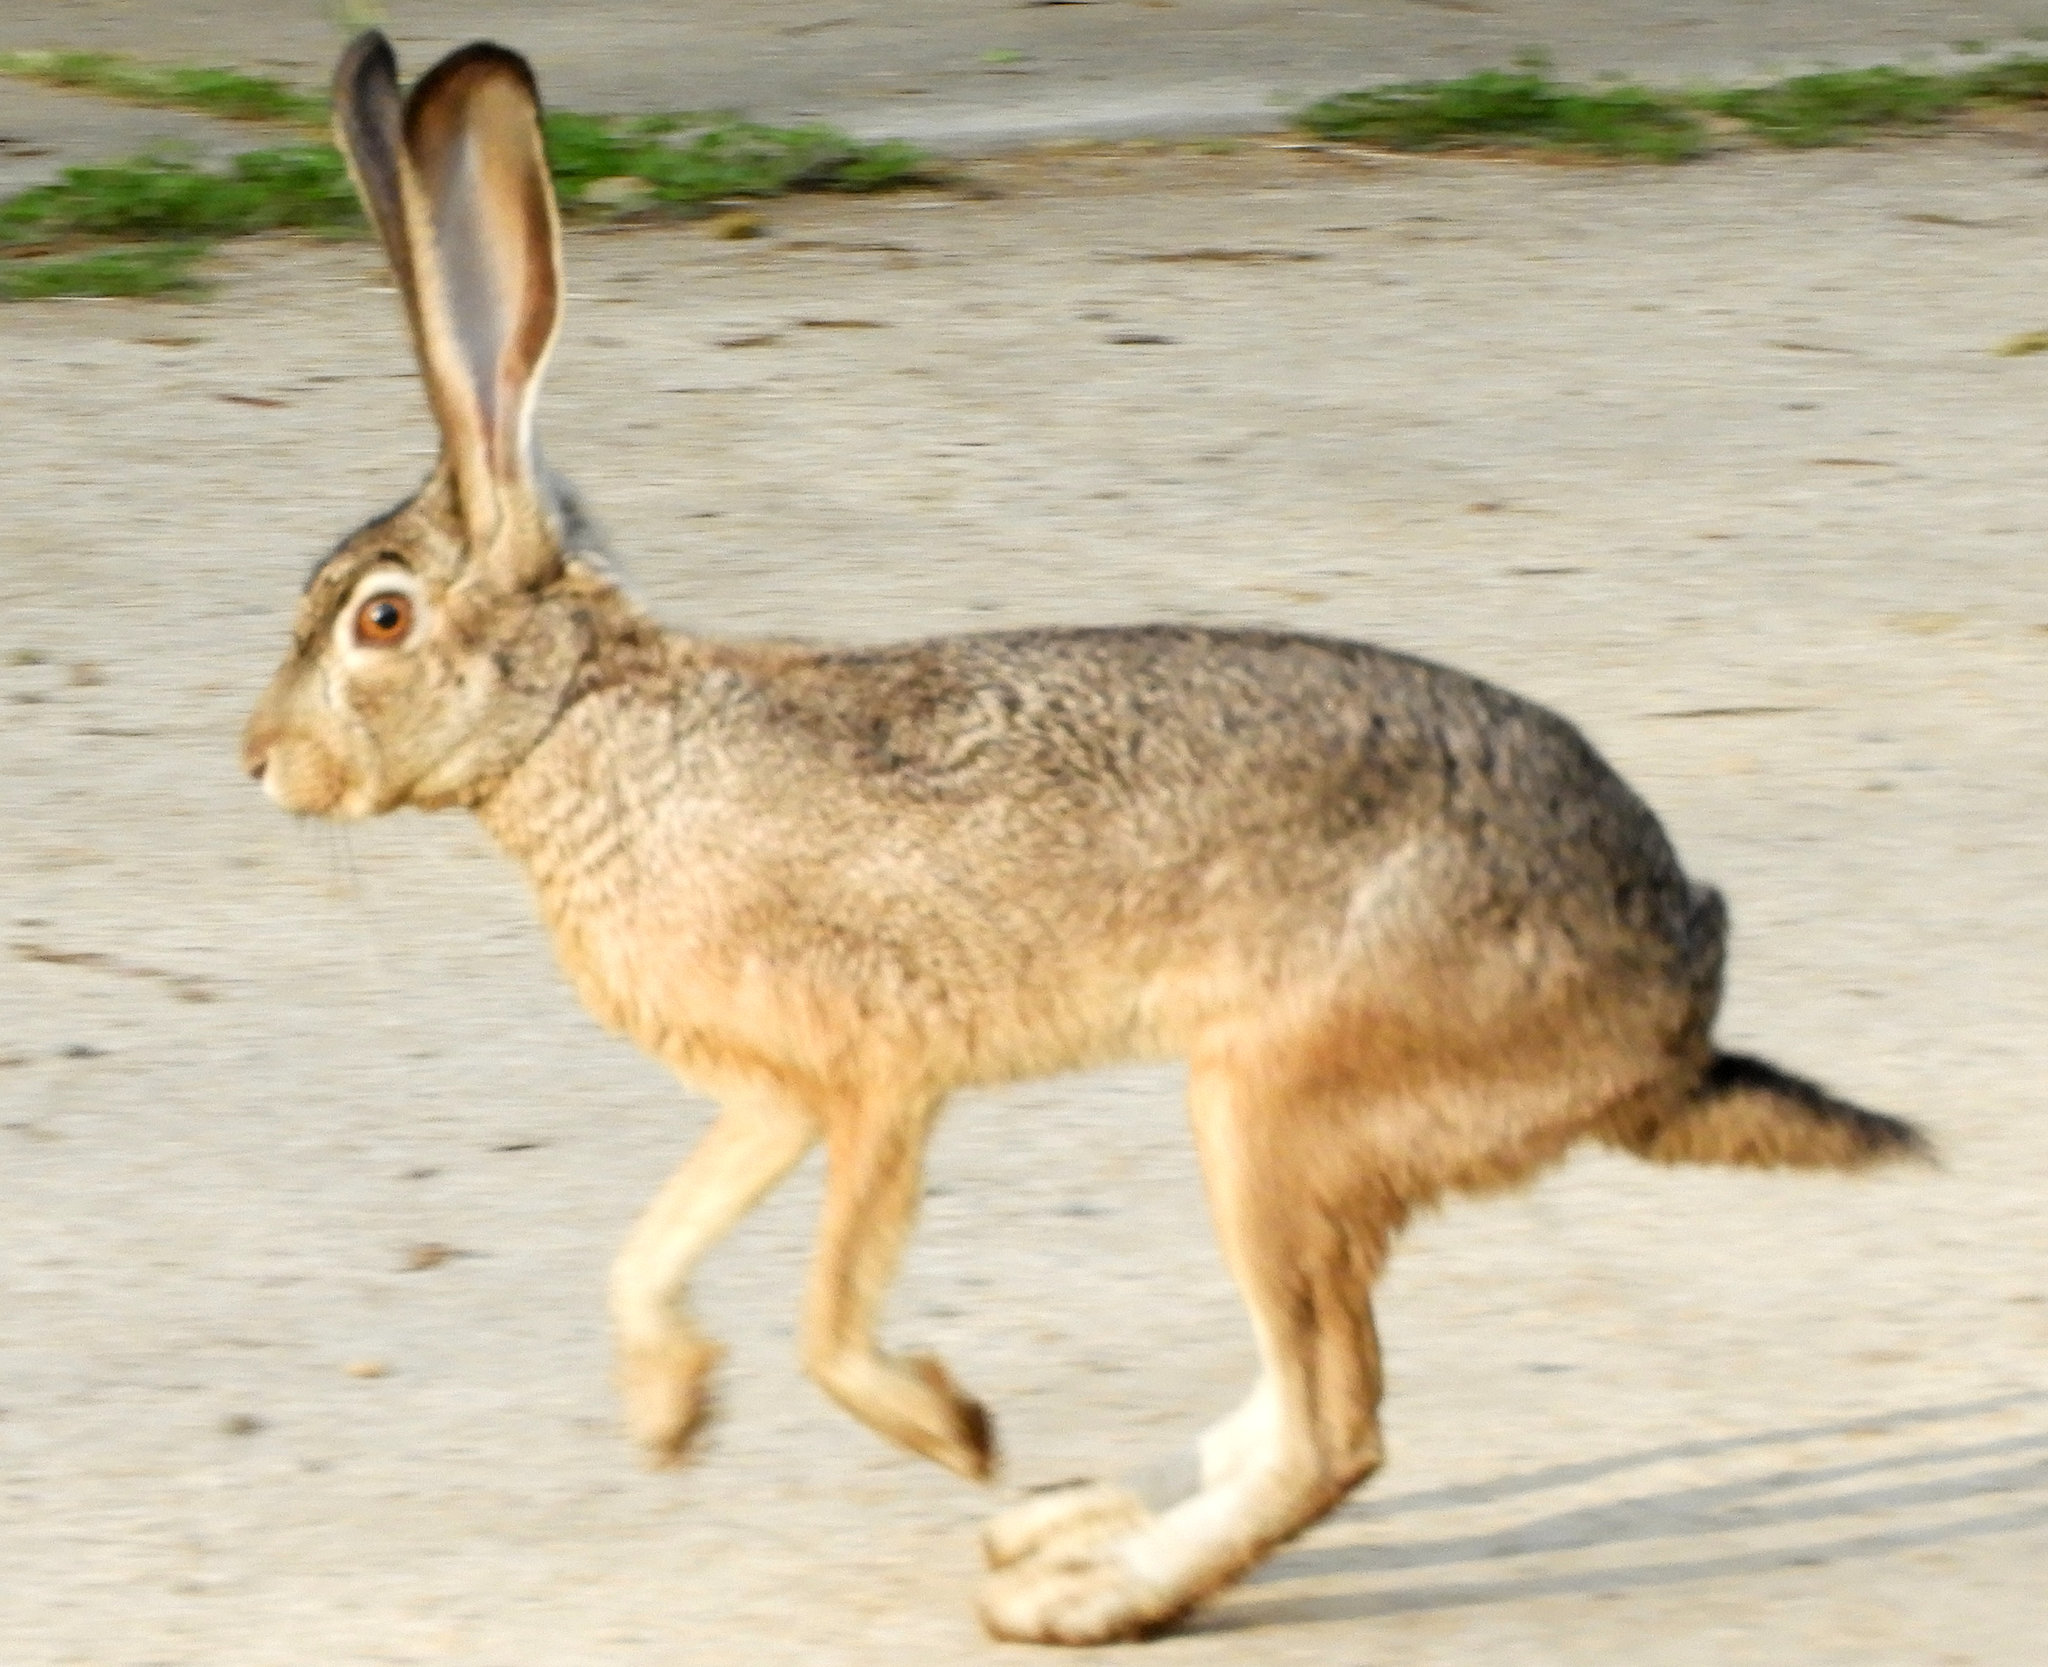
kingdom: Animalia
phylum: Chordata
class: Mammalia
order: Lagomorpha
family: Leporidae
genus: Lepus
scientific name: Lepus californicus
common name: Black-tailed jackrabbit
